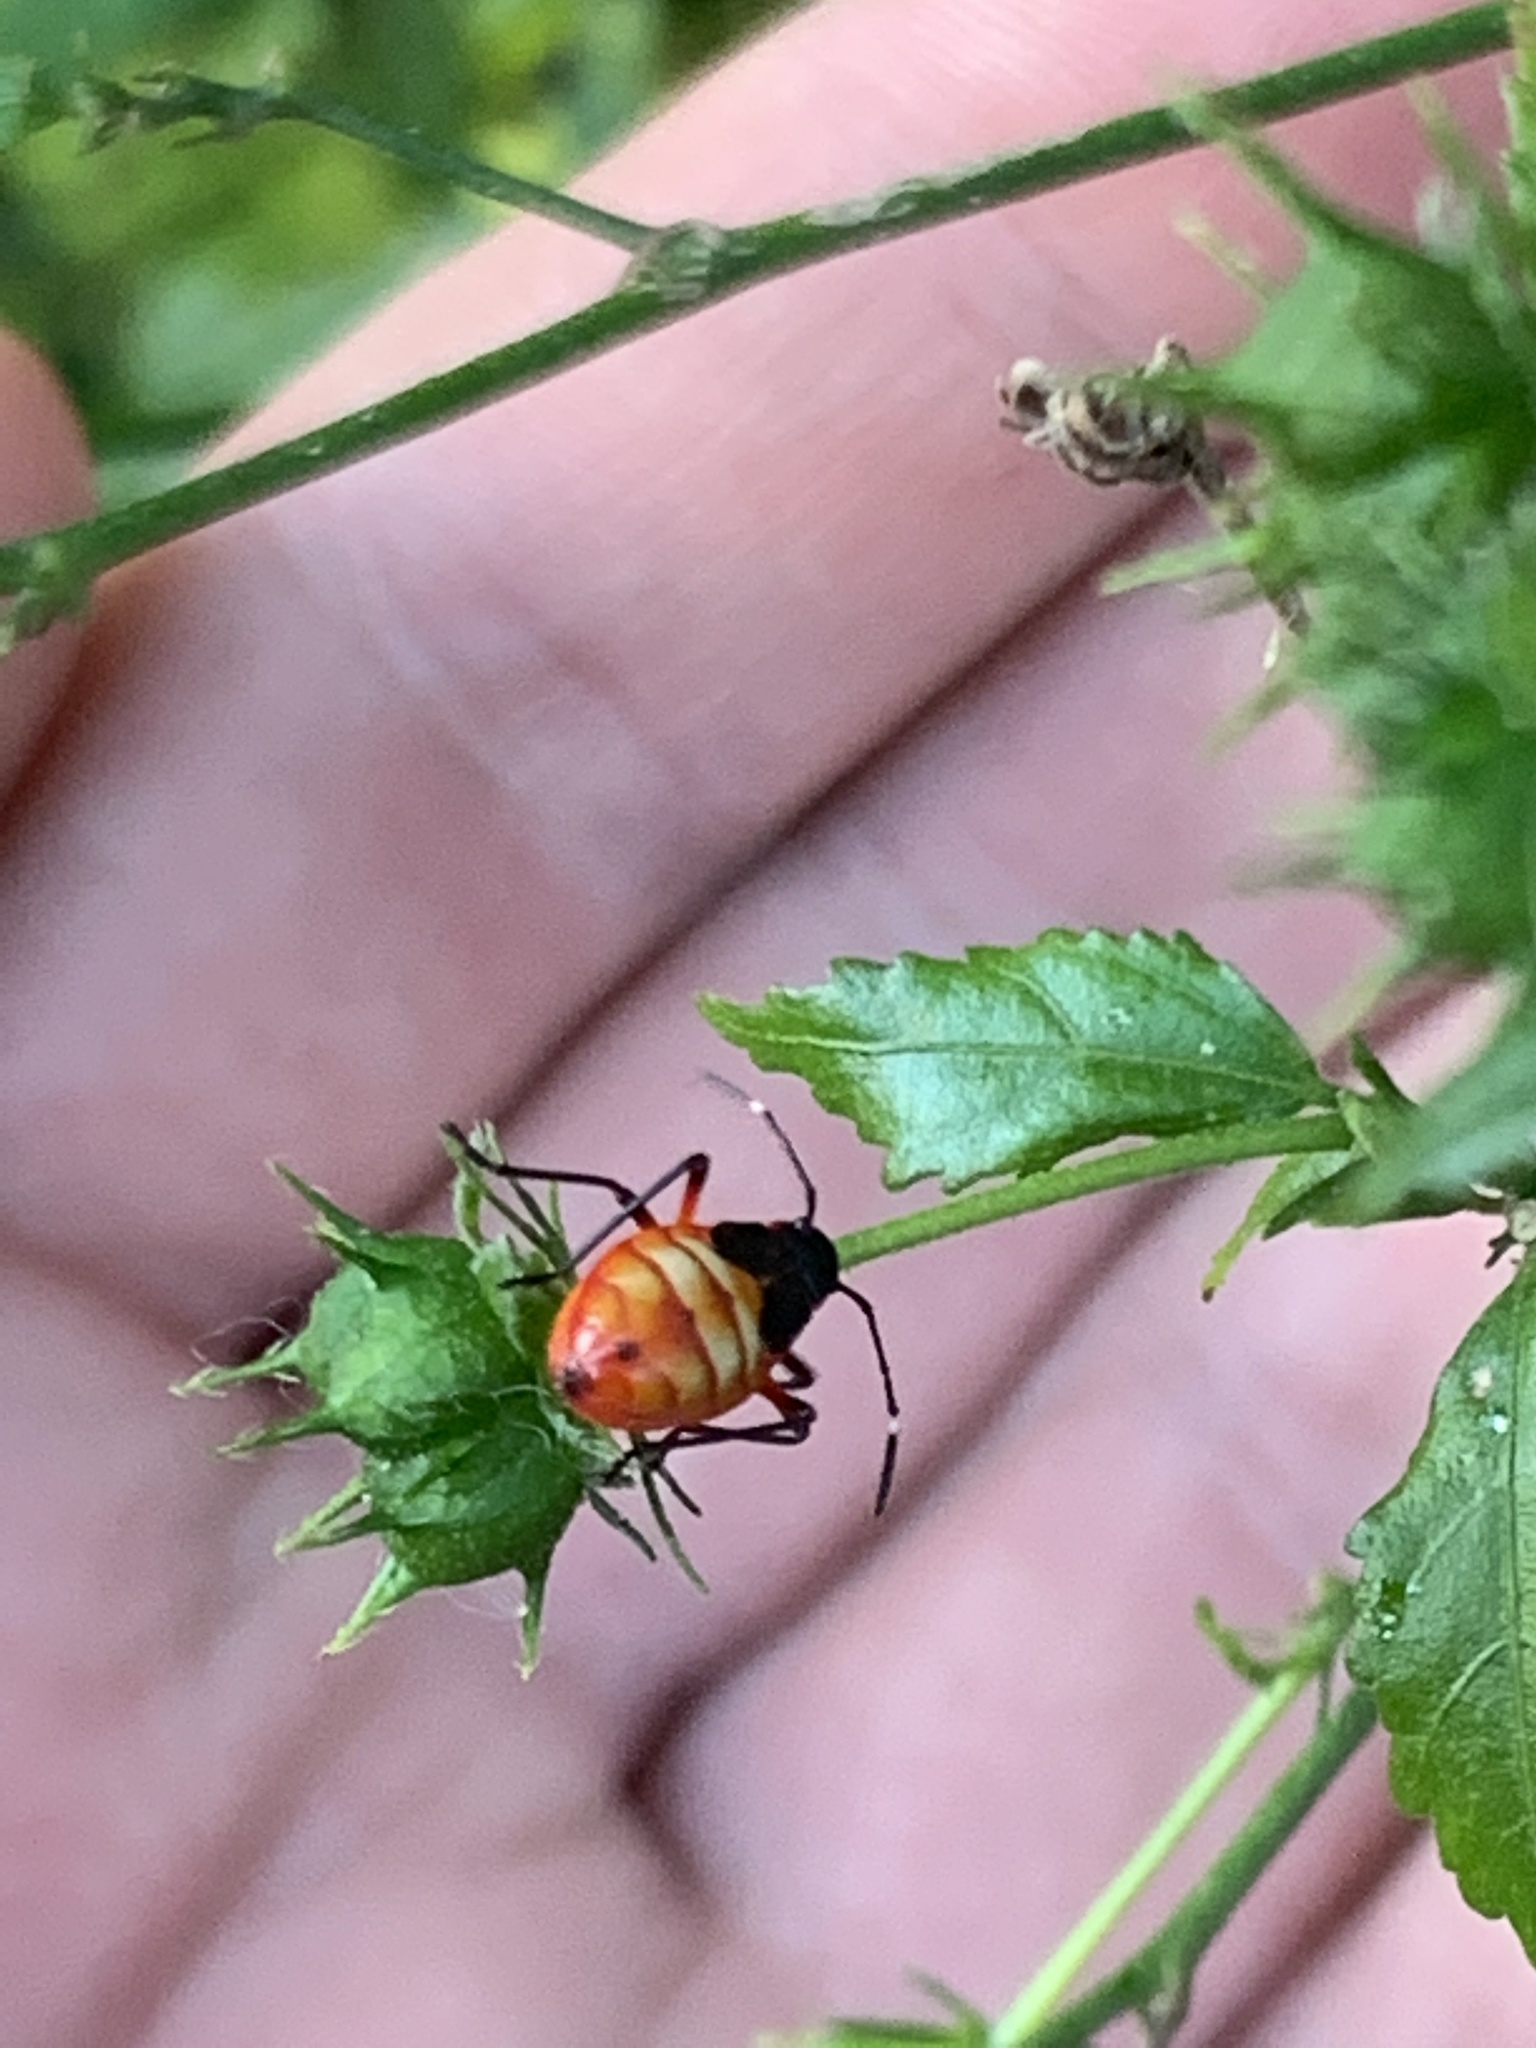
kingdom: Animalia
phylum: Arthropoda
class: Insecta
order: Hemiptera
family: Pyrrhocoridae
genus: Dysdercus
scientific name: Dysdercus albofasciatus
